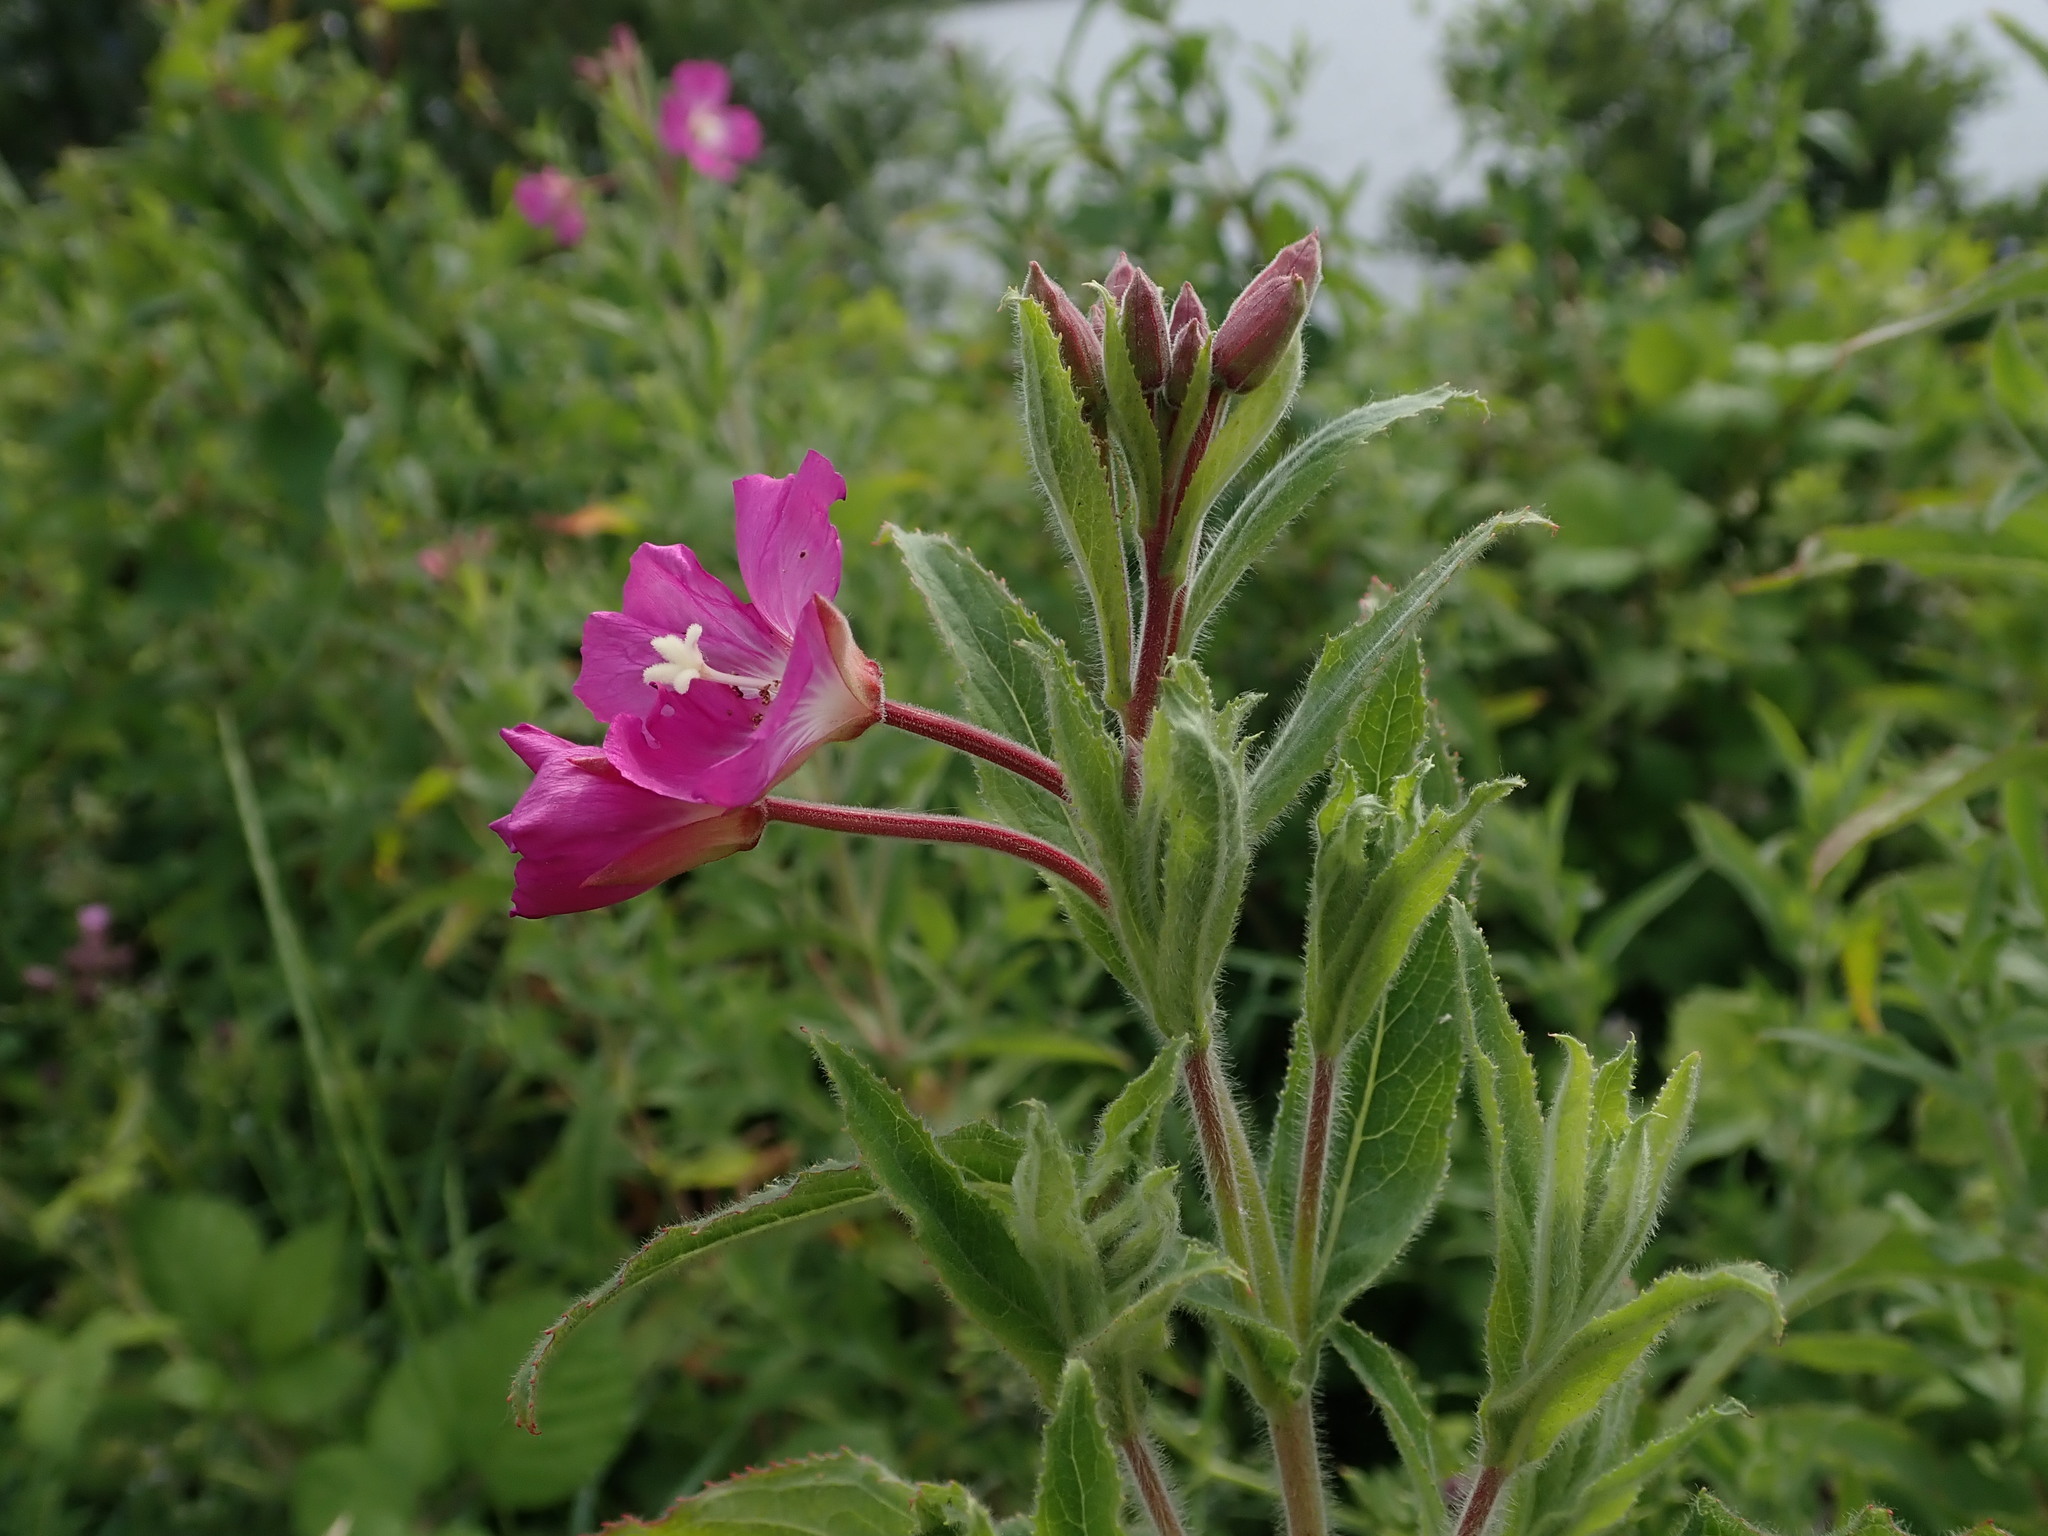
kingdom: Plantae
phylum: Tracheophyta
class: Magnoliopsida
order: Myrtales
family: Onagraceae
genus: Epilobium
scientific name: Epilobium hirsutum
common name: Great willowherb
